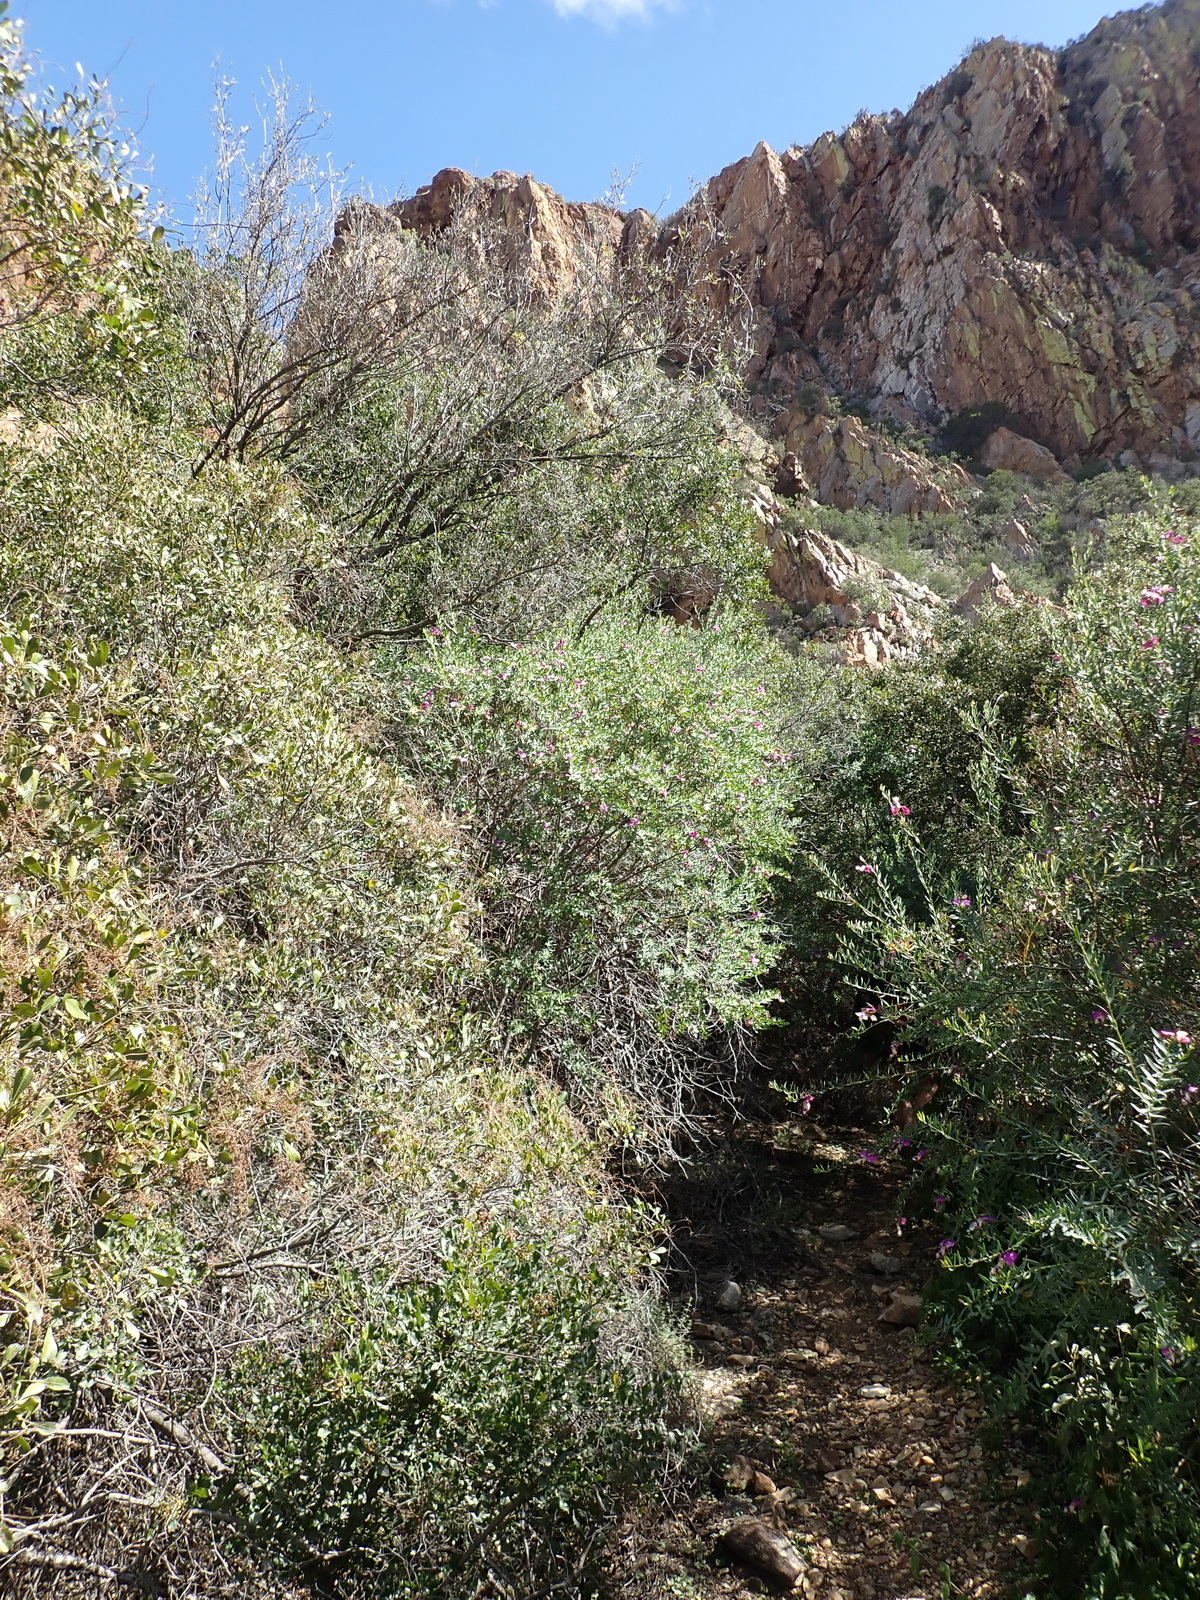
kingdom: Plantae
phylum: Tracheophyta
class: Magnoliopsida
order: Fabales
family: Polygalaceae
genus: Polygala
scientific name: Polygala myrtifolia
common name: Myrtle-leaf milkwort
